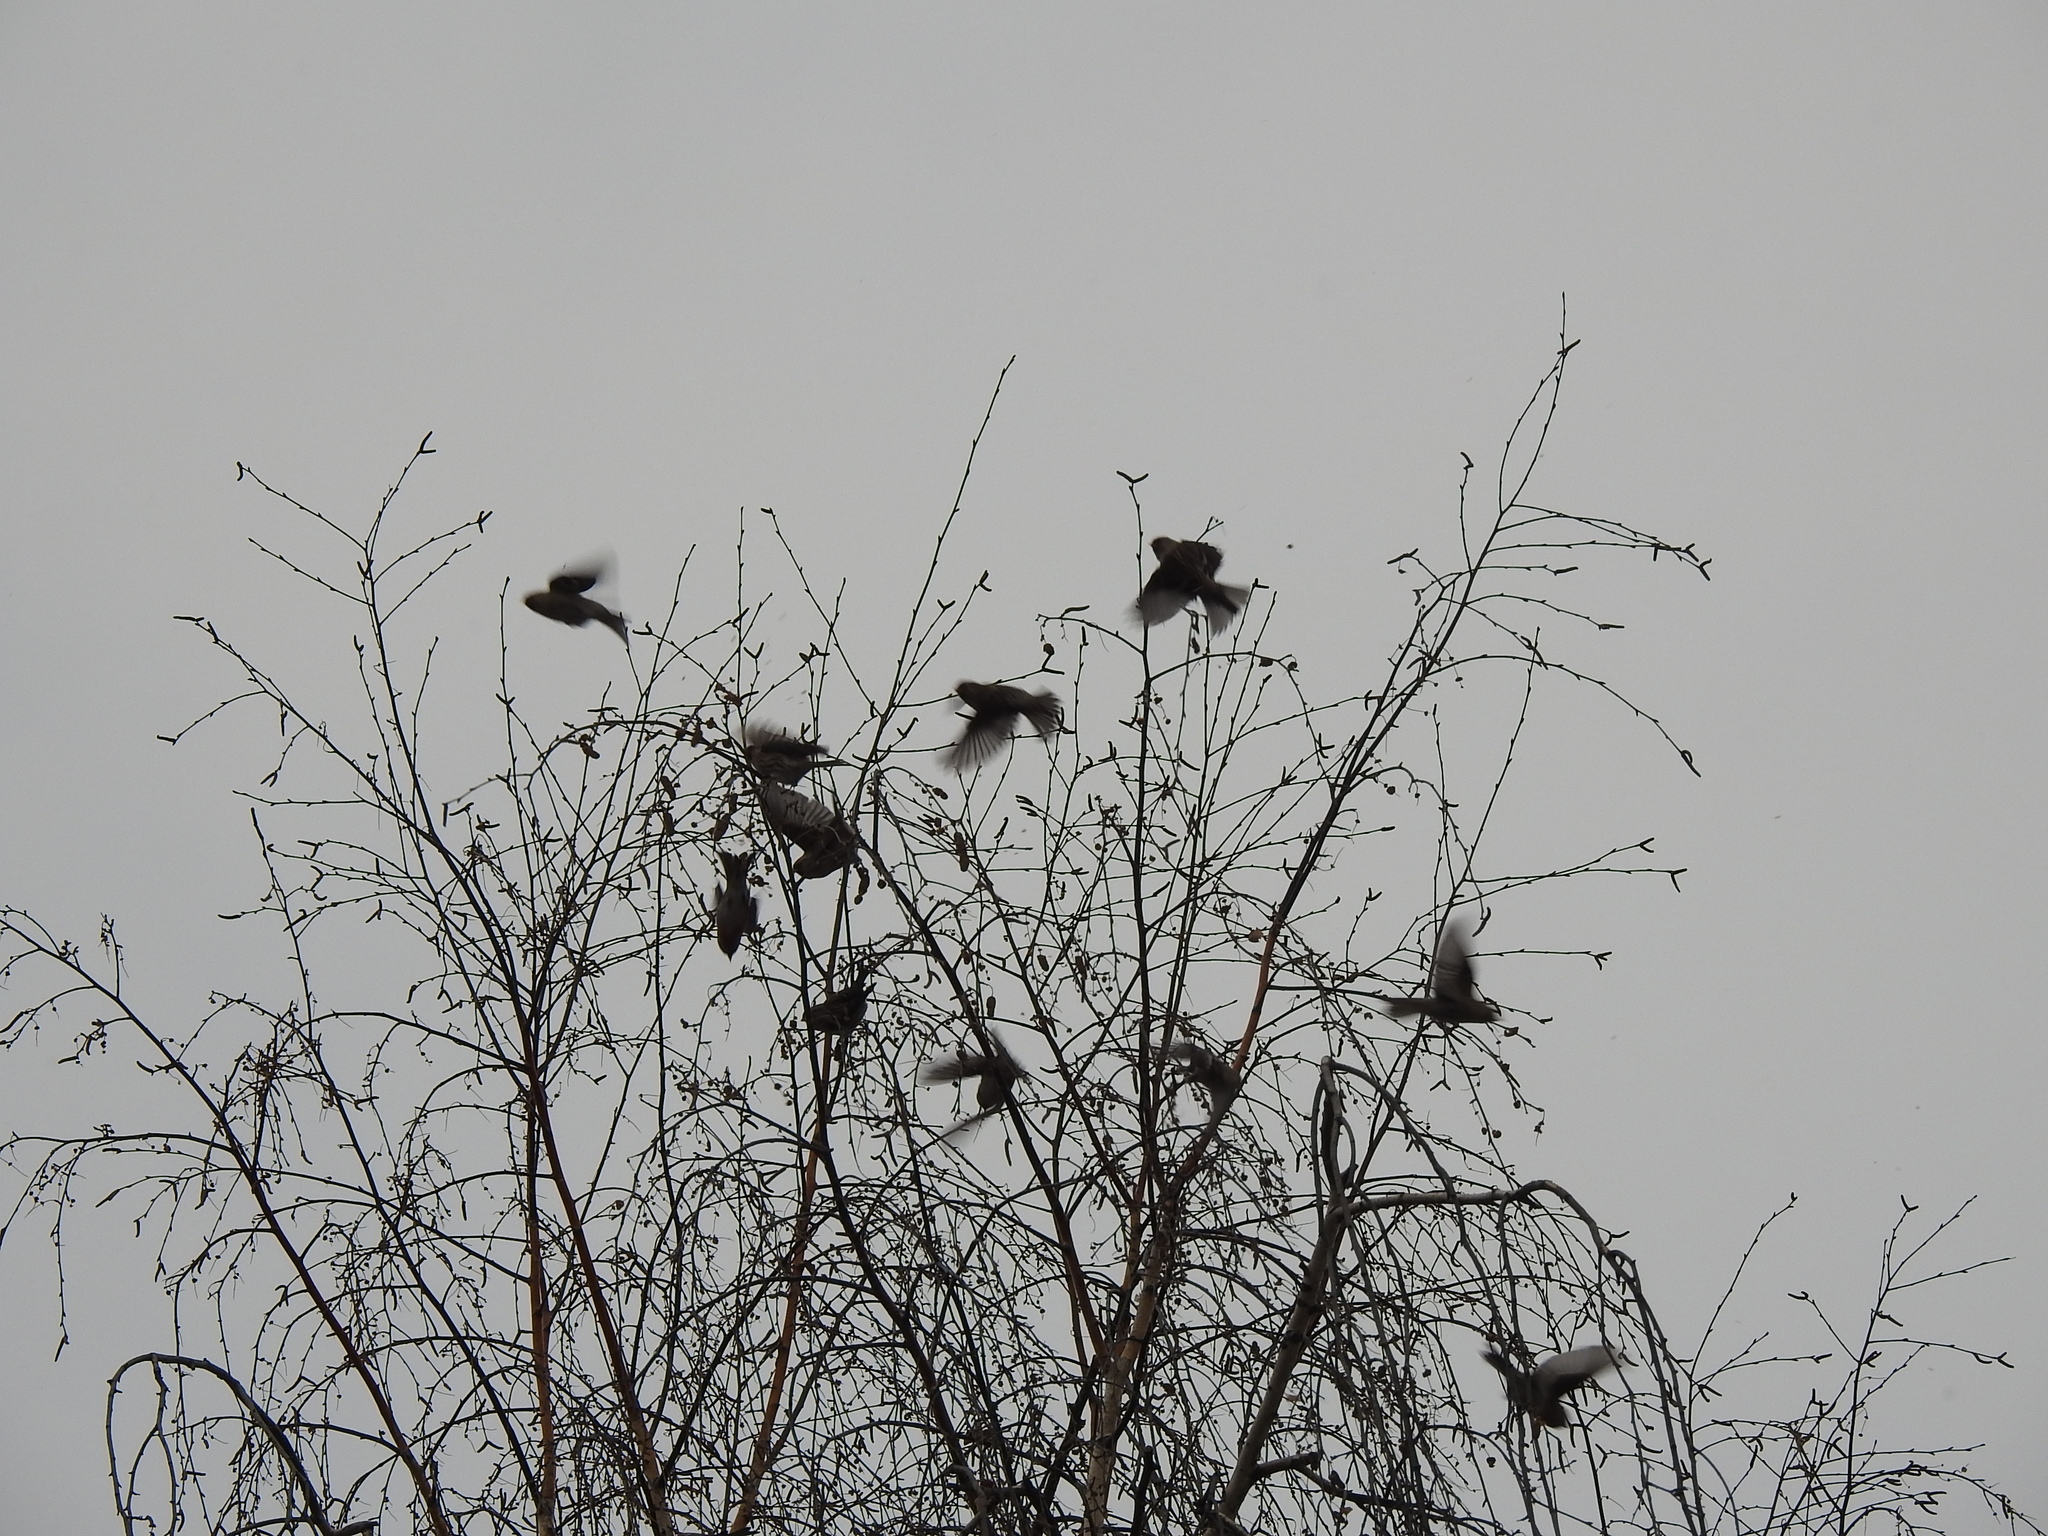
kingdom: Animalia
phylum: Chordata
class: Aves
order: Passeriformes
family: Fringillidae
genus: Acanthis
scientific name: Acanthis flammea
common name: Common redpoll
